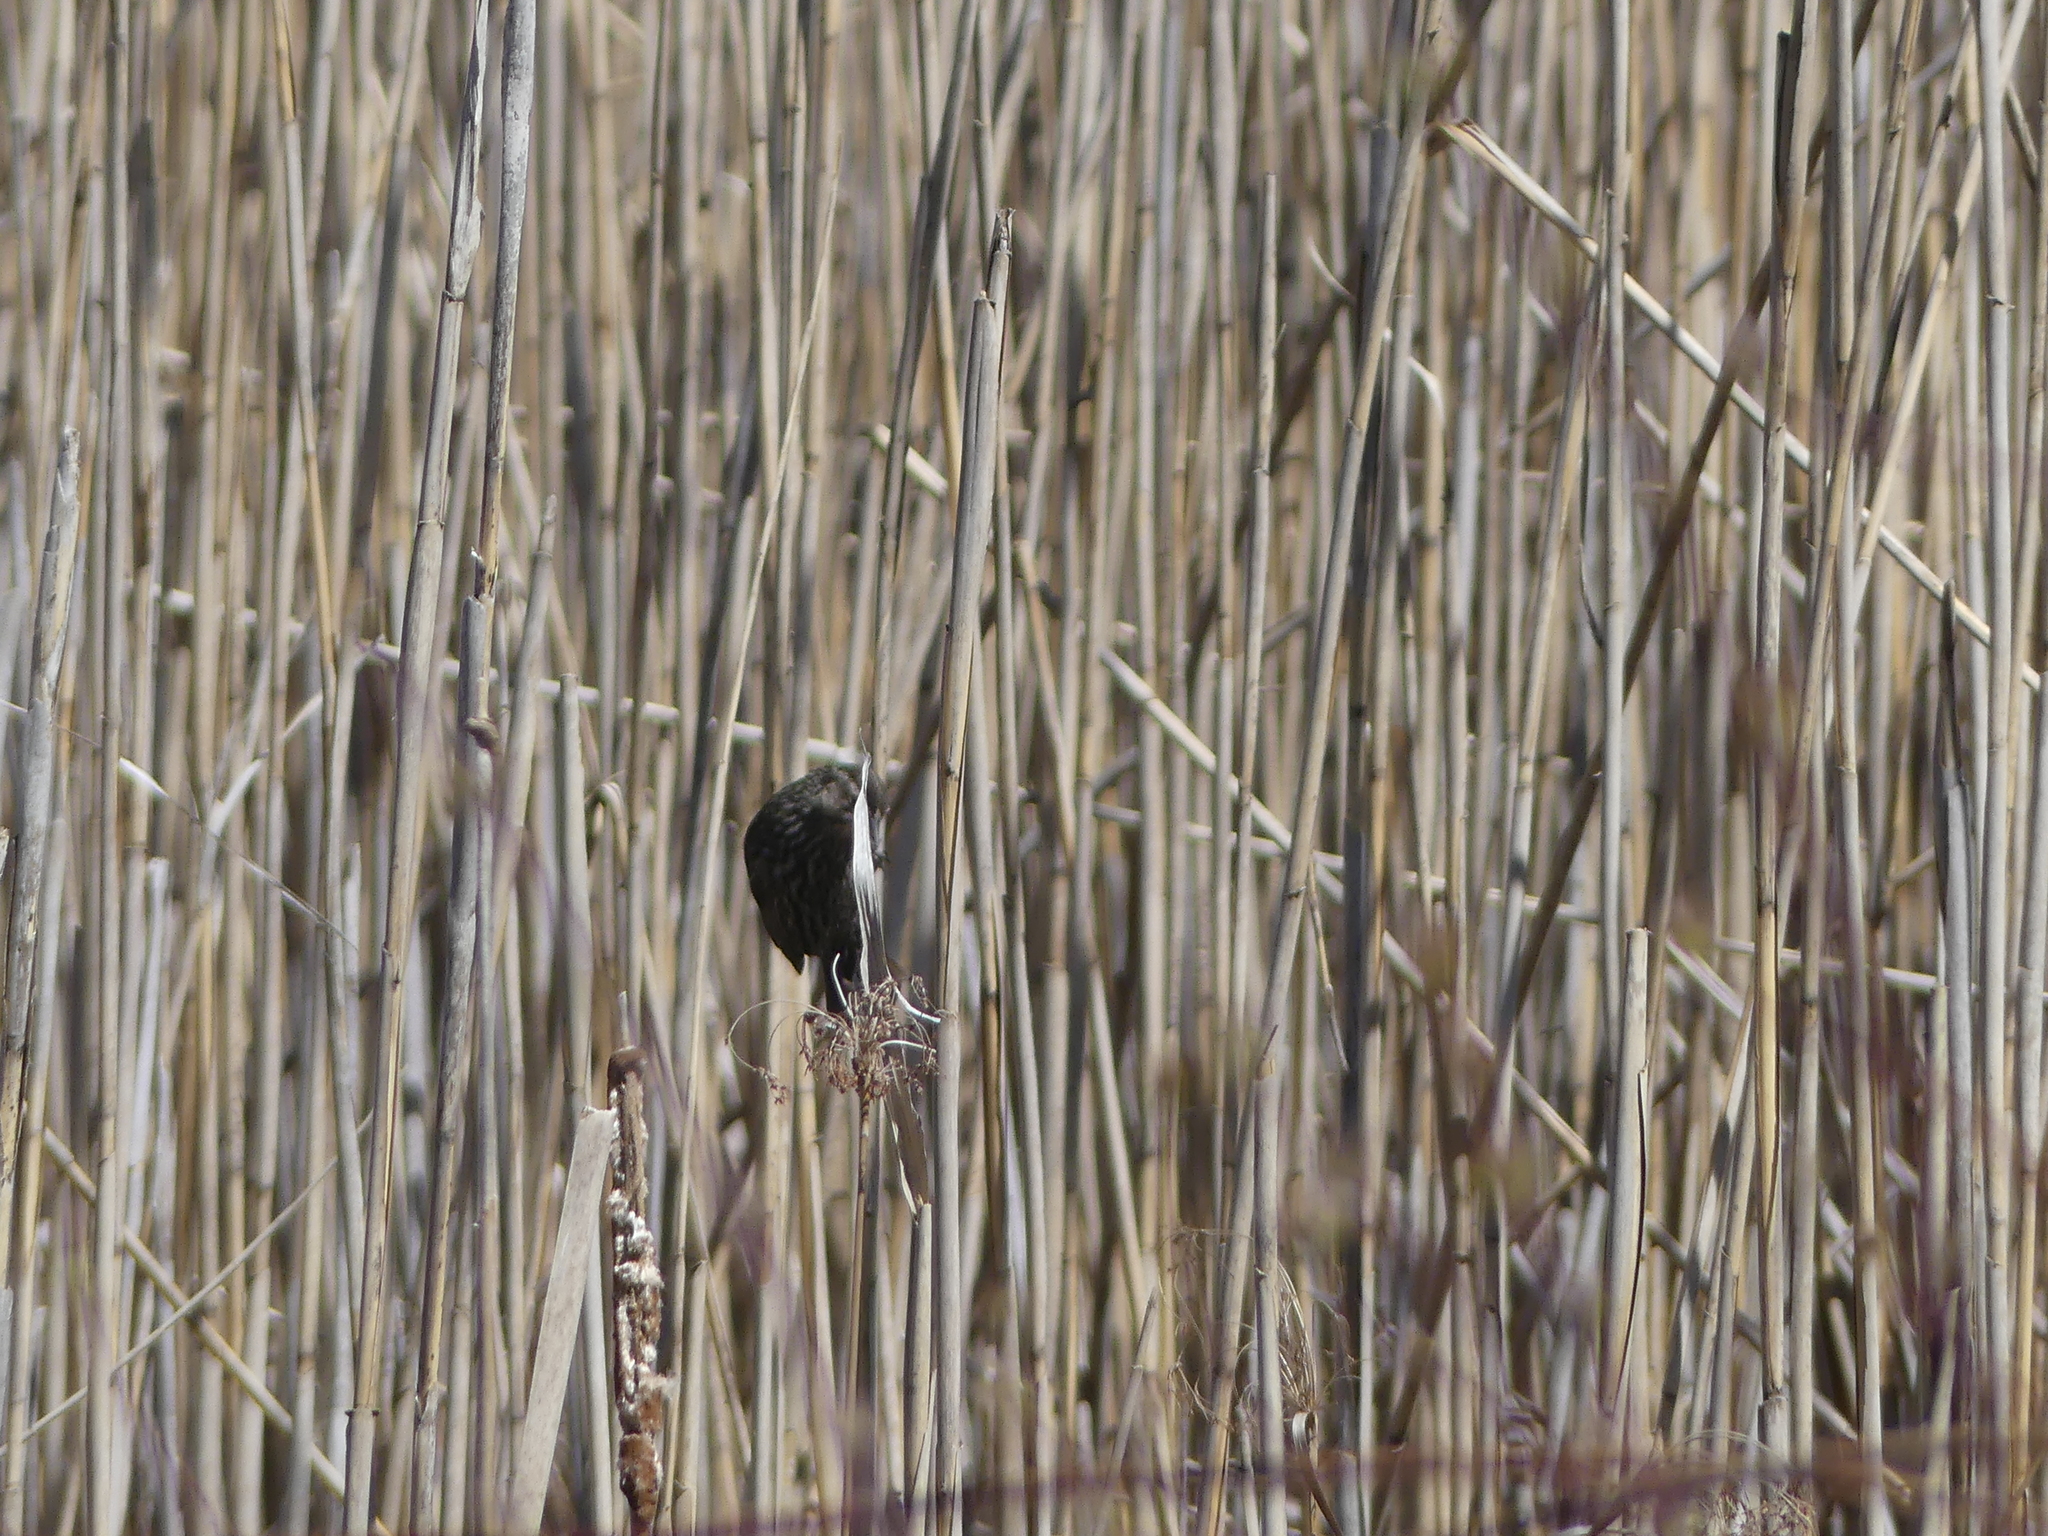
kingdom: Animalia
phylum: Chordata
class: Aves
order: Passeriformes
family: Icteridae
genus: Agelaius
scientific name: Agelaius phoeniceus
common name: Red-winged blackbird
